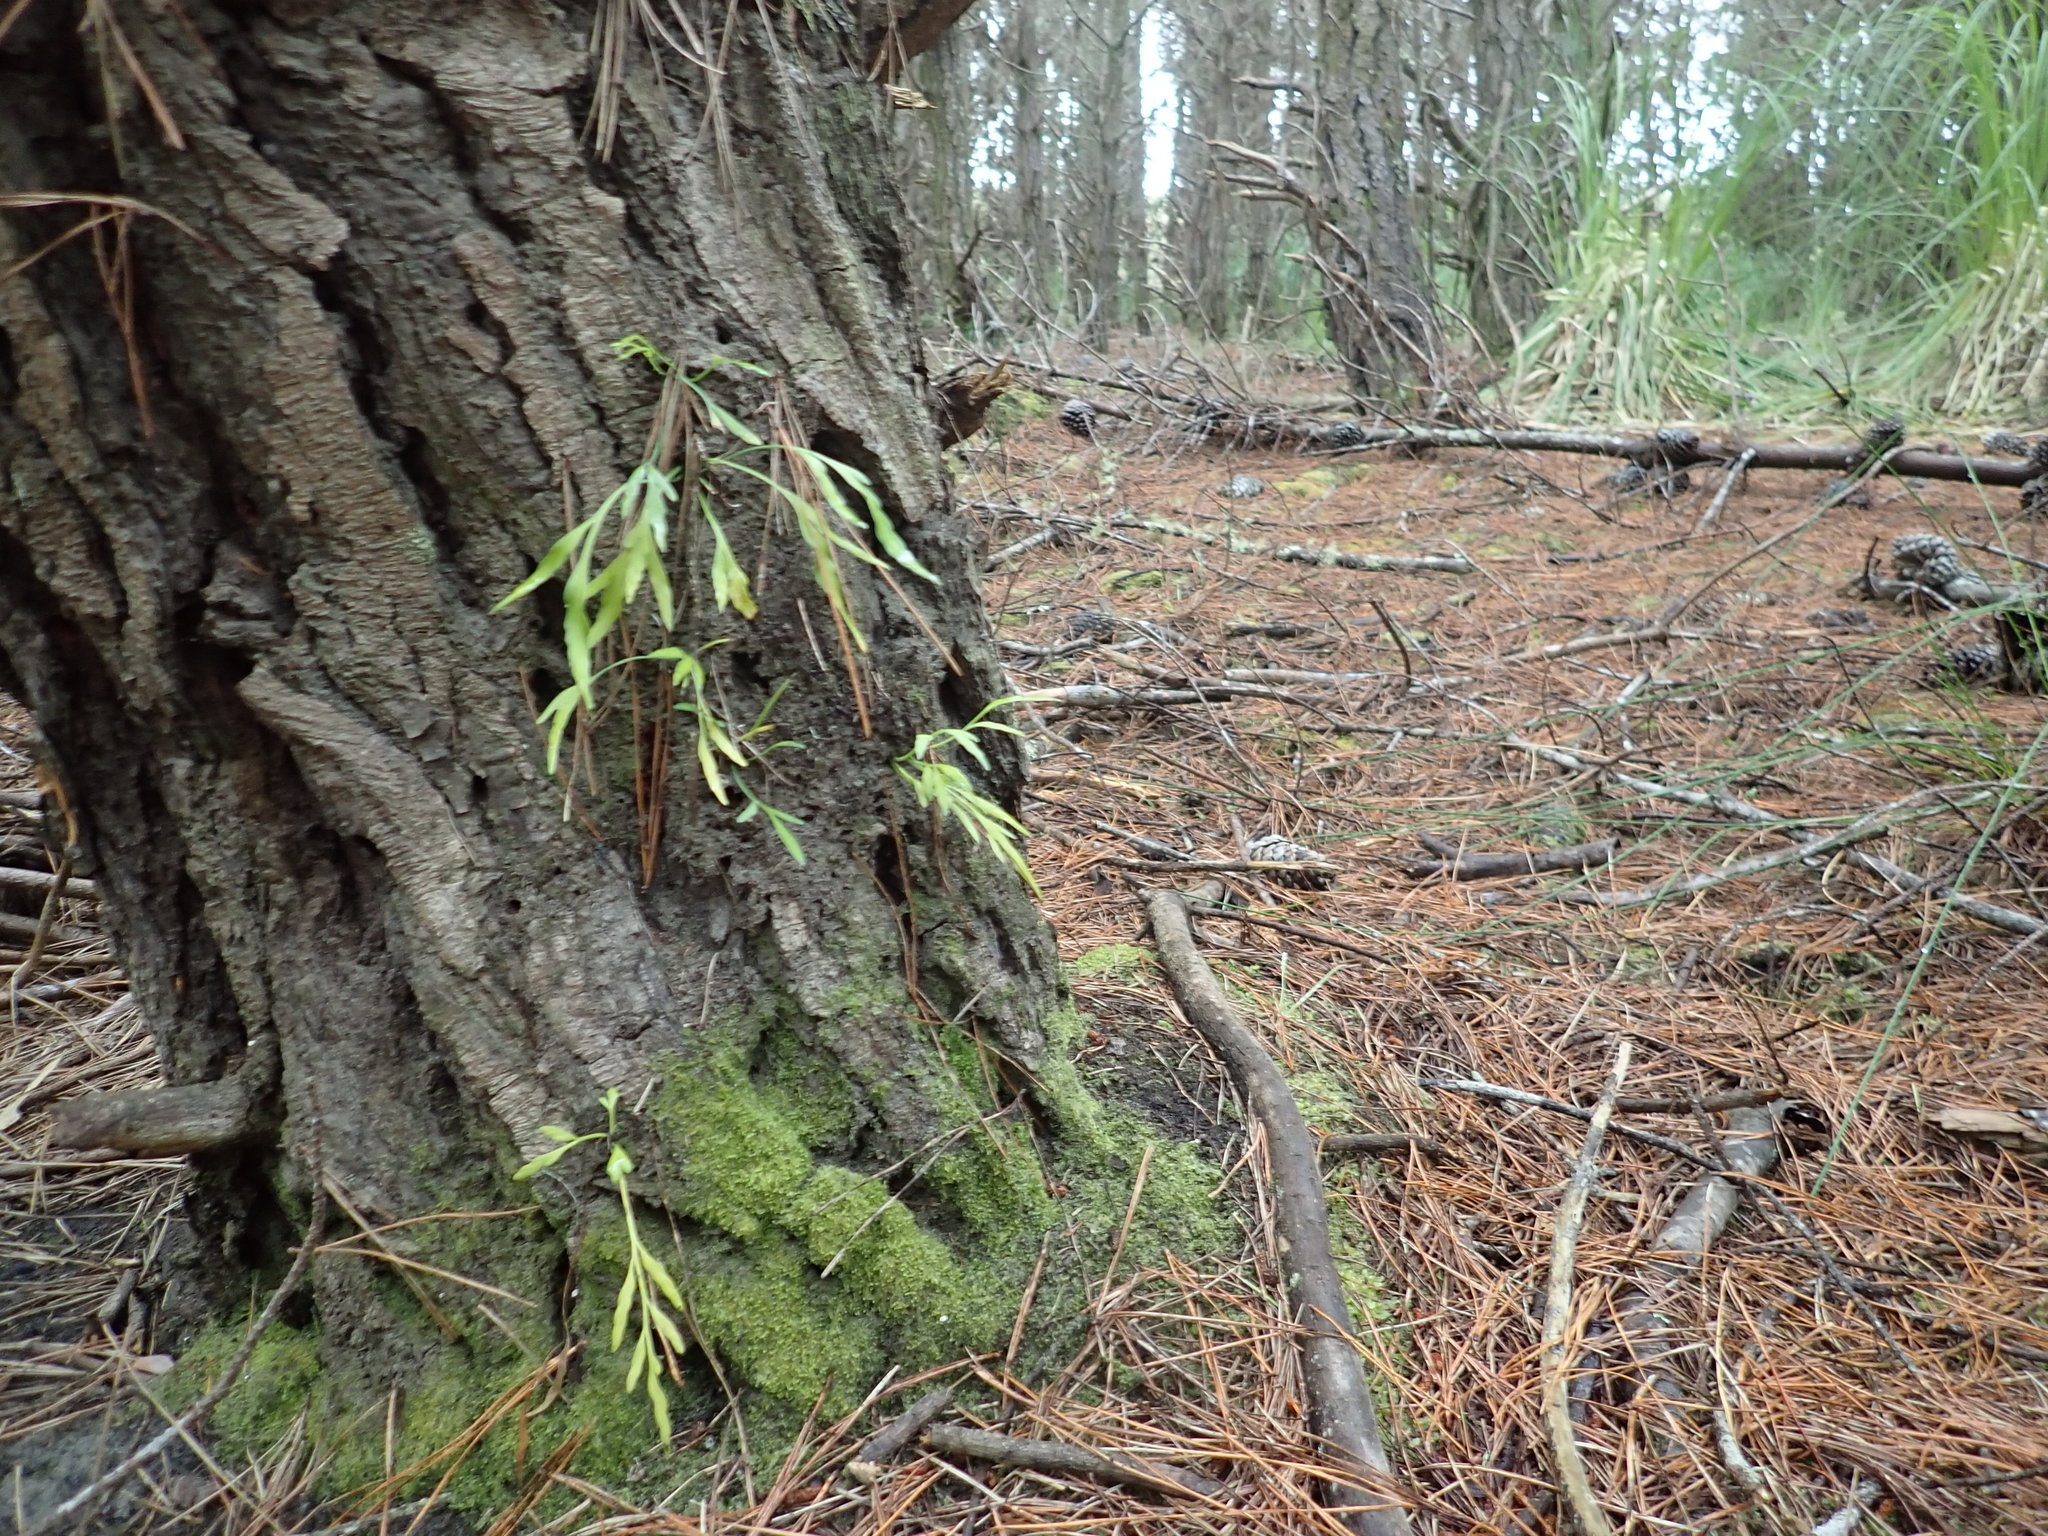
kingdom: Plantae
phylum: Tracheophyta
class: Polypodiopsida
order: Polypodiales
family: Aspleniaceae
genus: Asplenium
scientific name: Asplenium flaccidum
